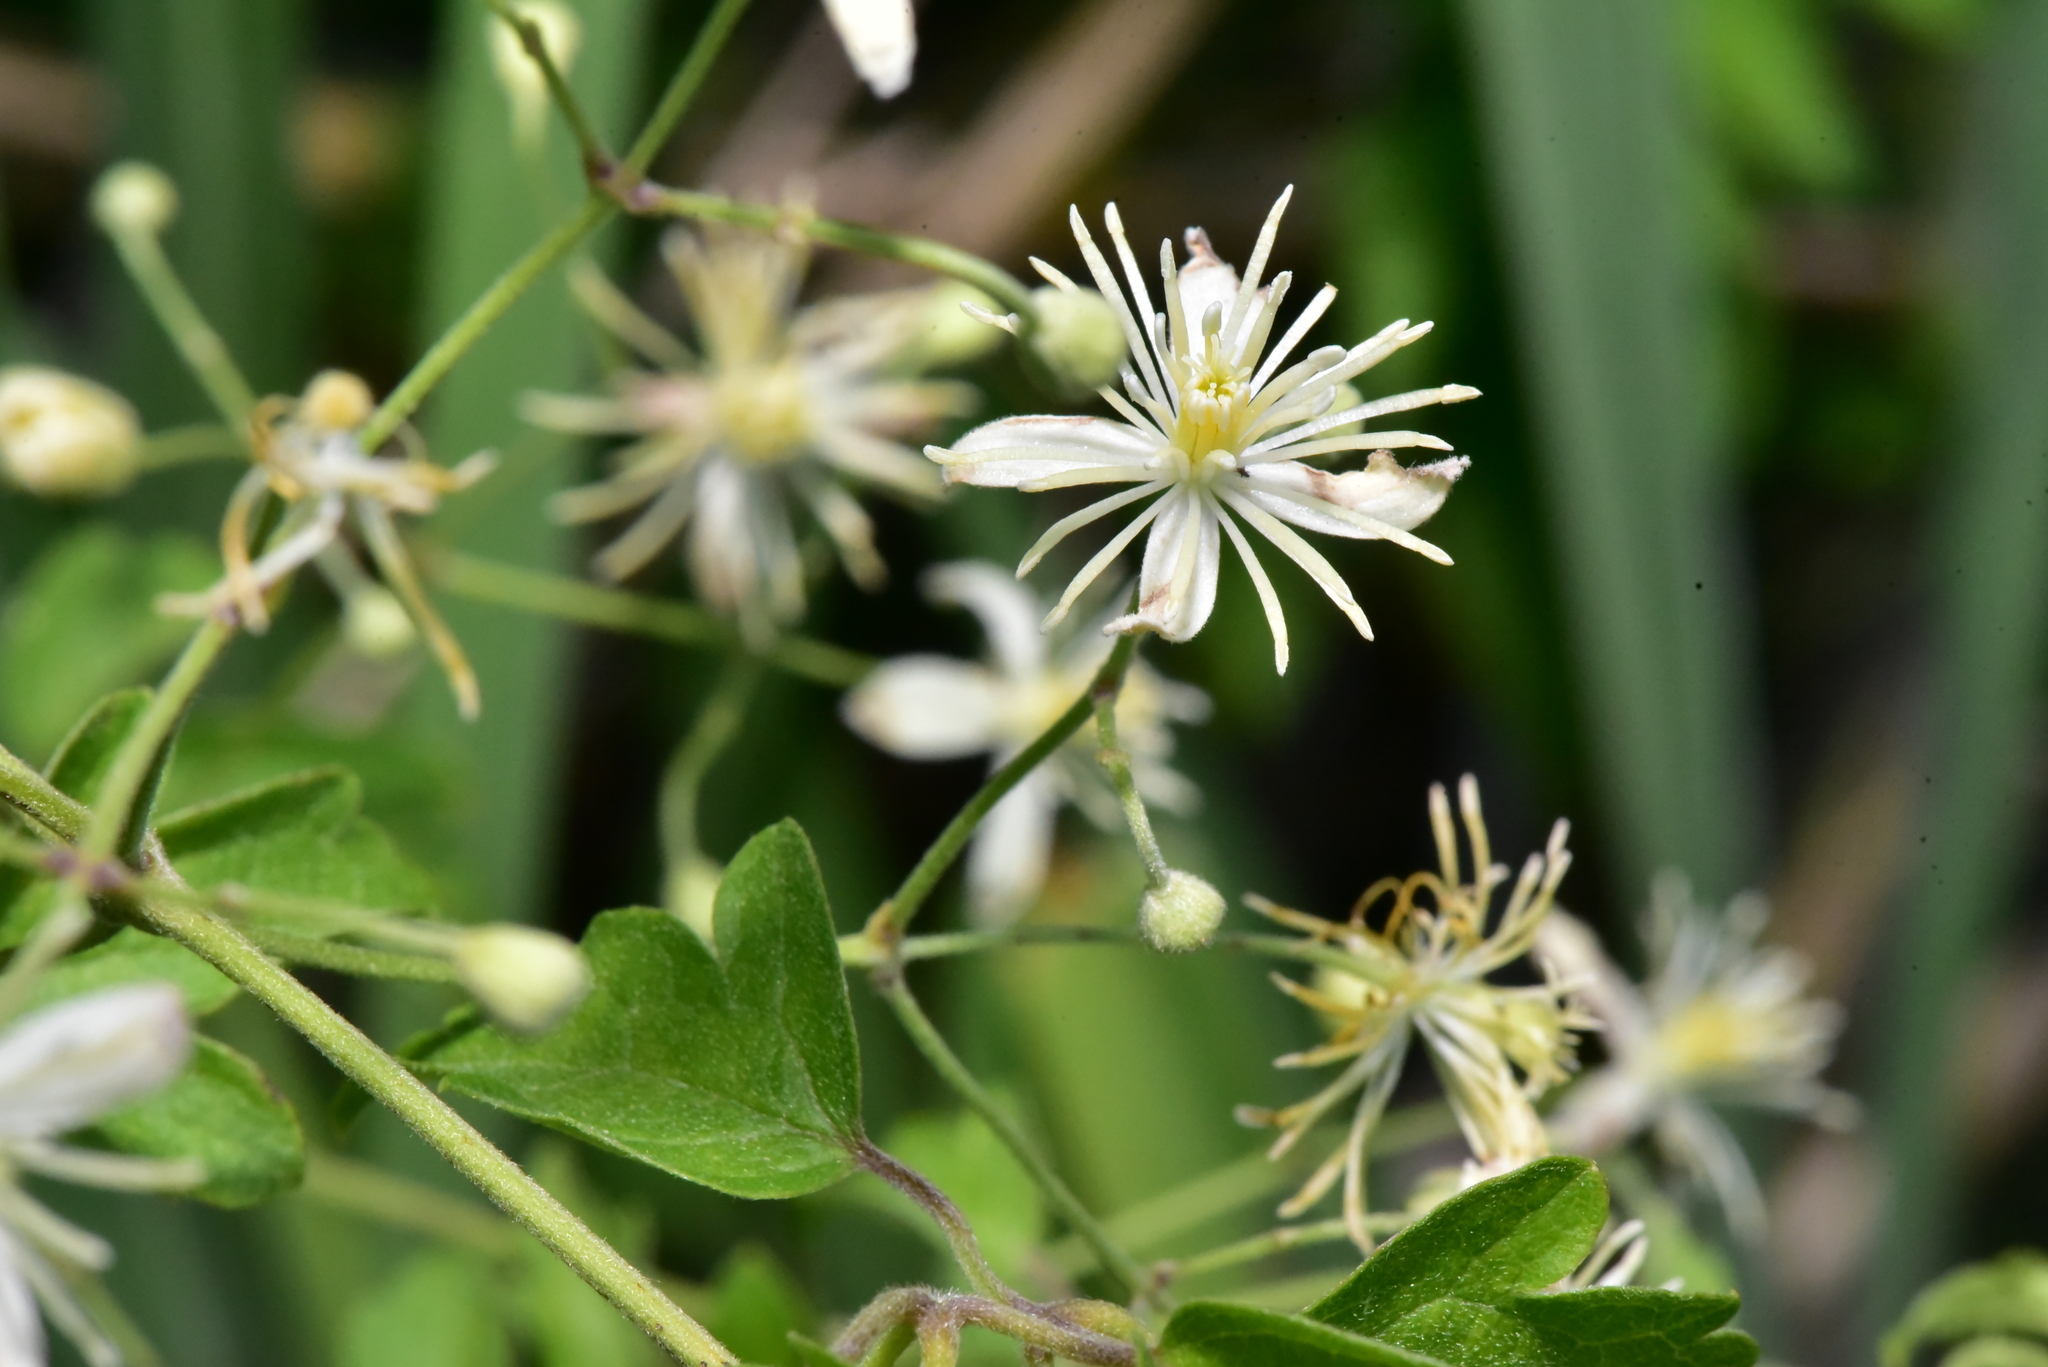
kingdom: Plantae
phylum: Tracheophyta
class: Magnoliopsida
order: Ranunculales
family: Ranunculaceae
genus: Clematis
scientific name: Clematis grata
